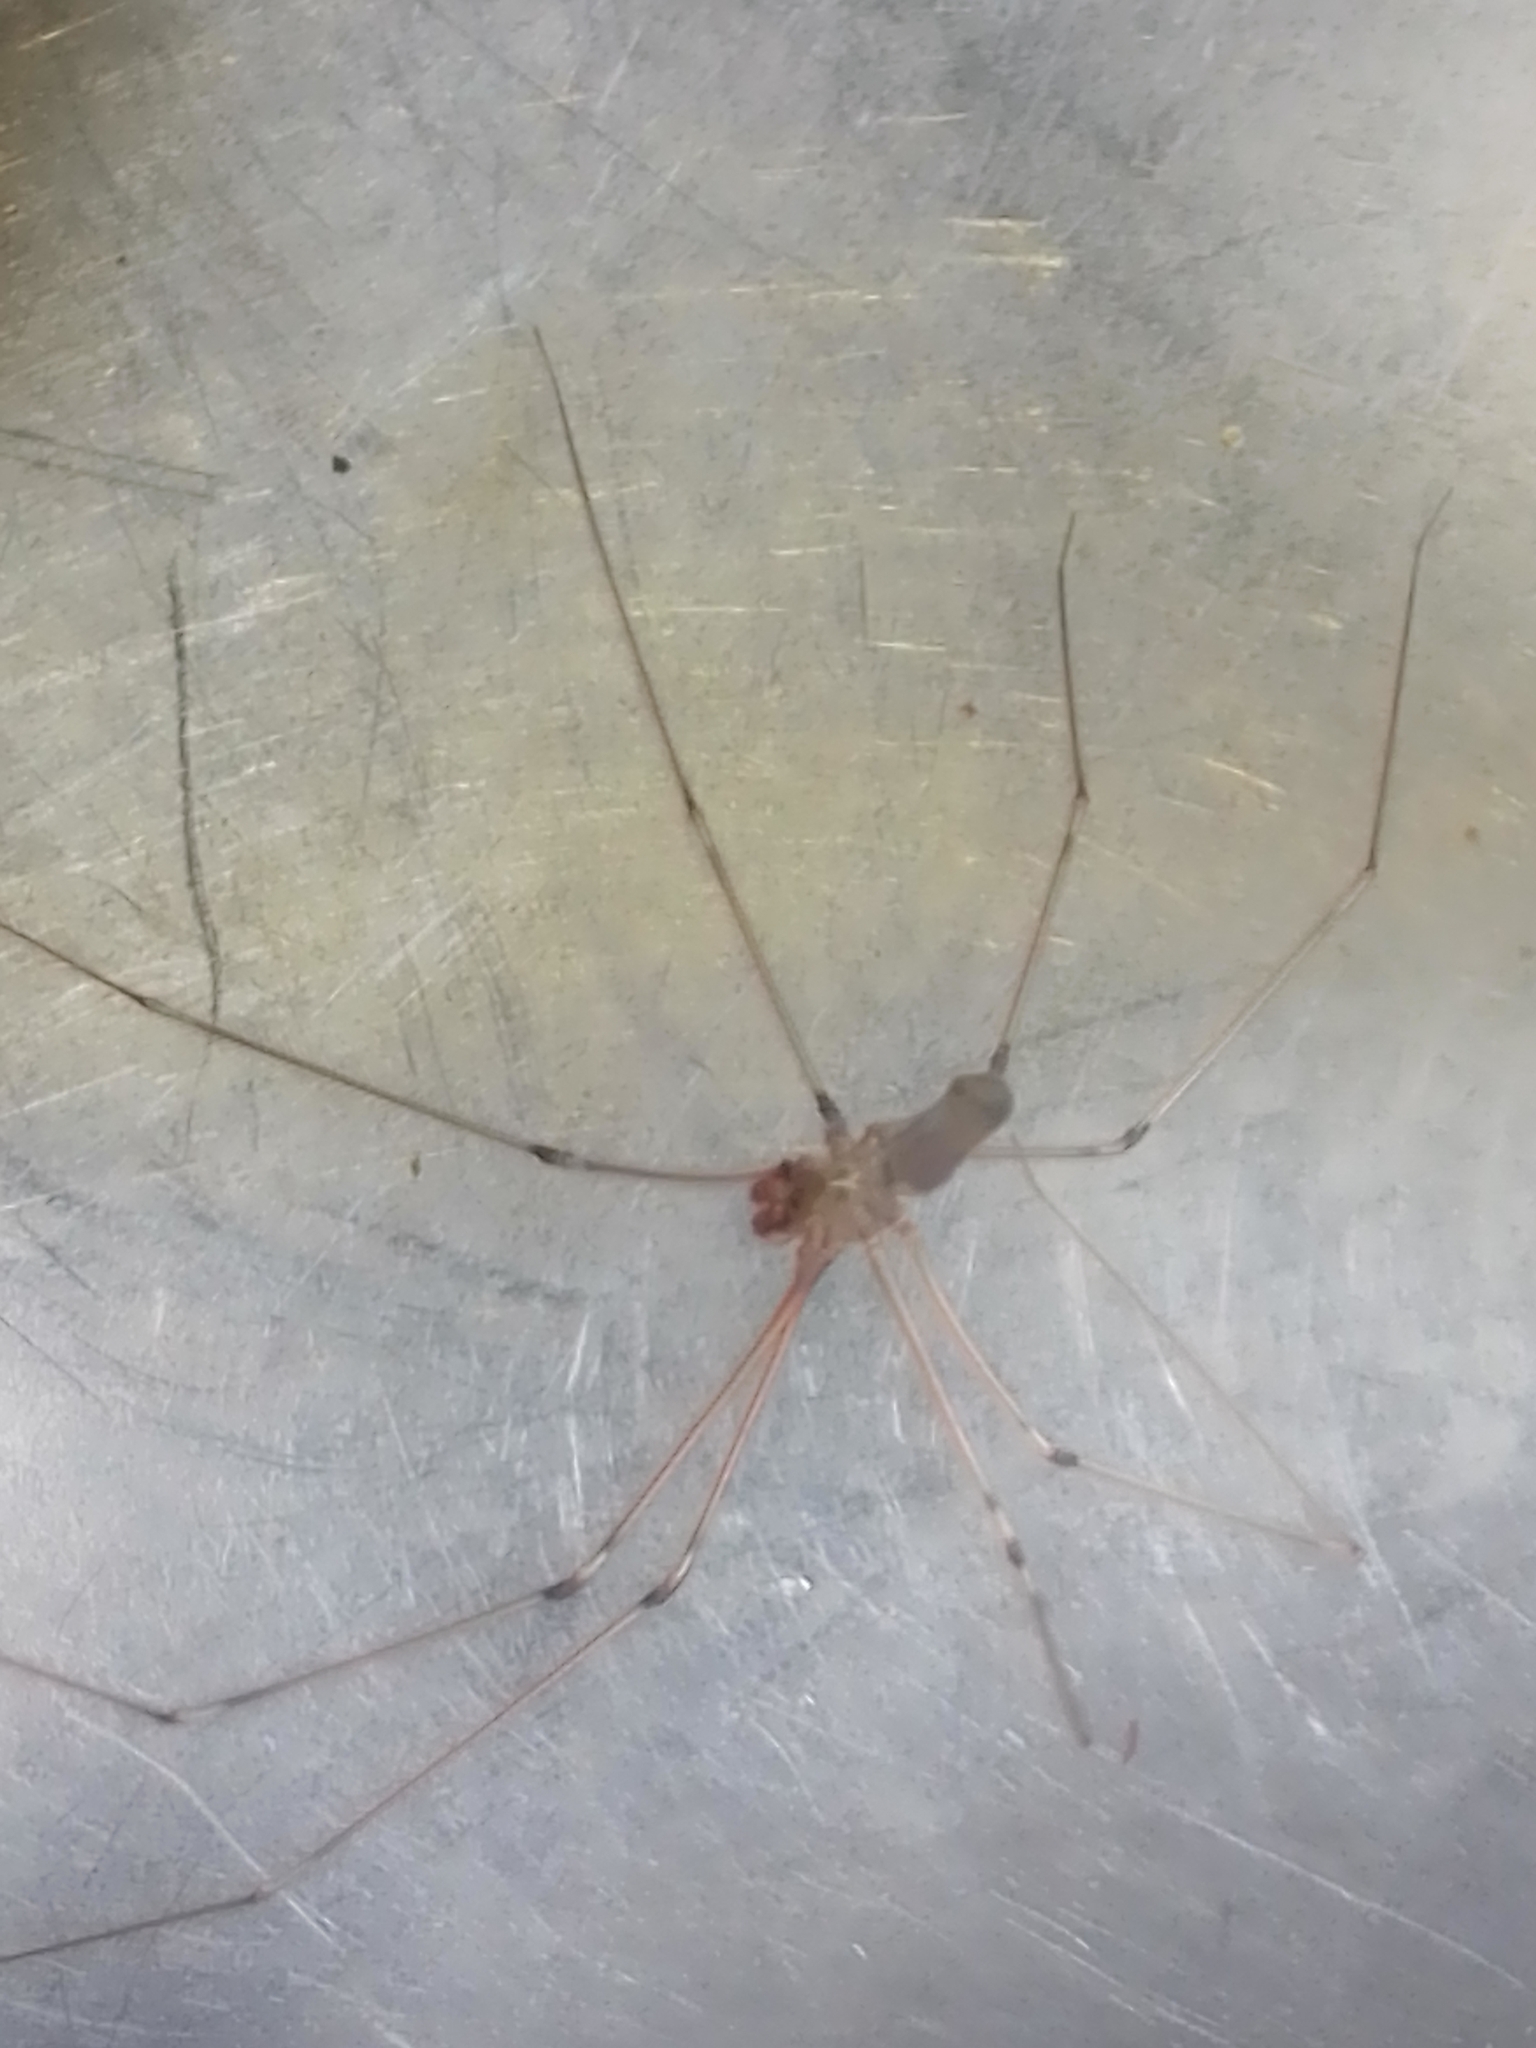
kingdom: Animalia
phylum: Arthropoda
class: Arachnida
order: Araneae
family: Pholcidae
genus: Pholcus
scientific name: Pholcus phalangioides
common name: Longbodied cellar spider
